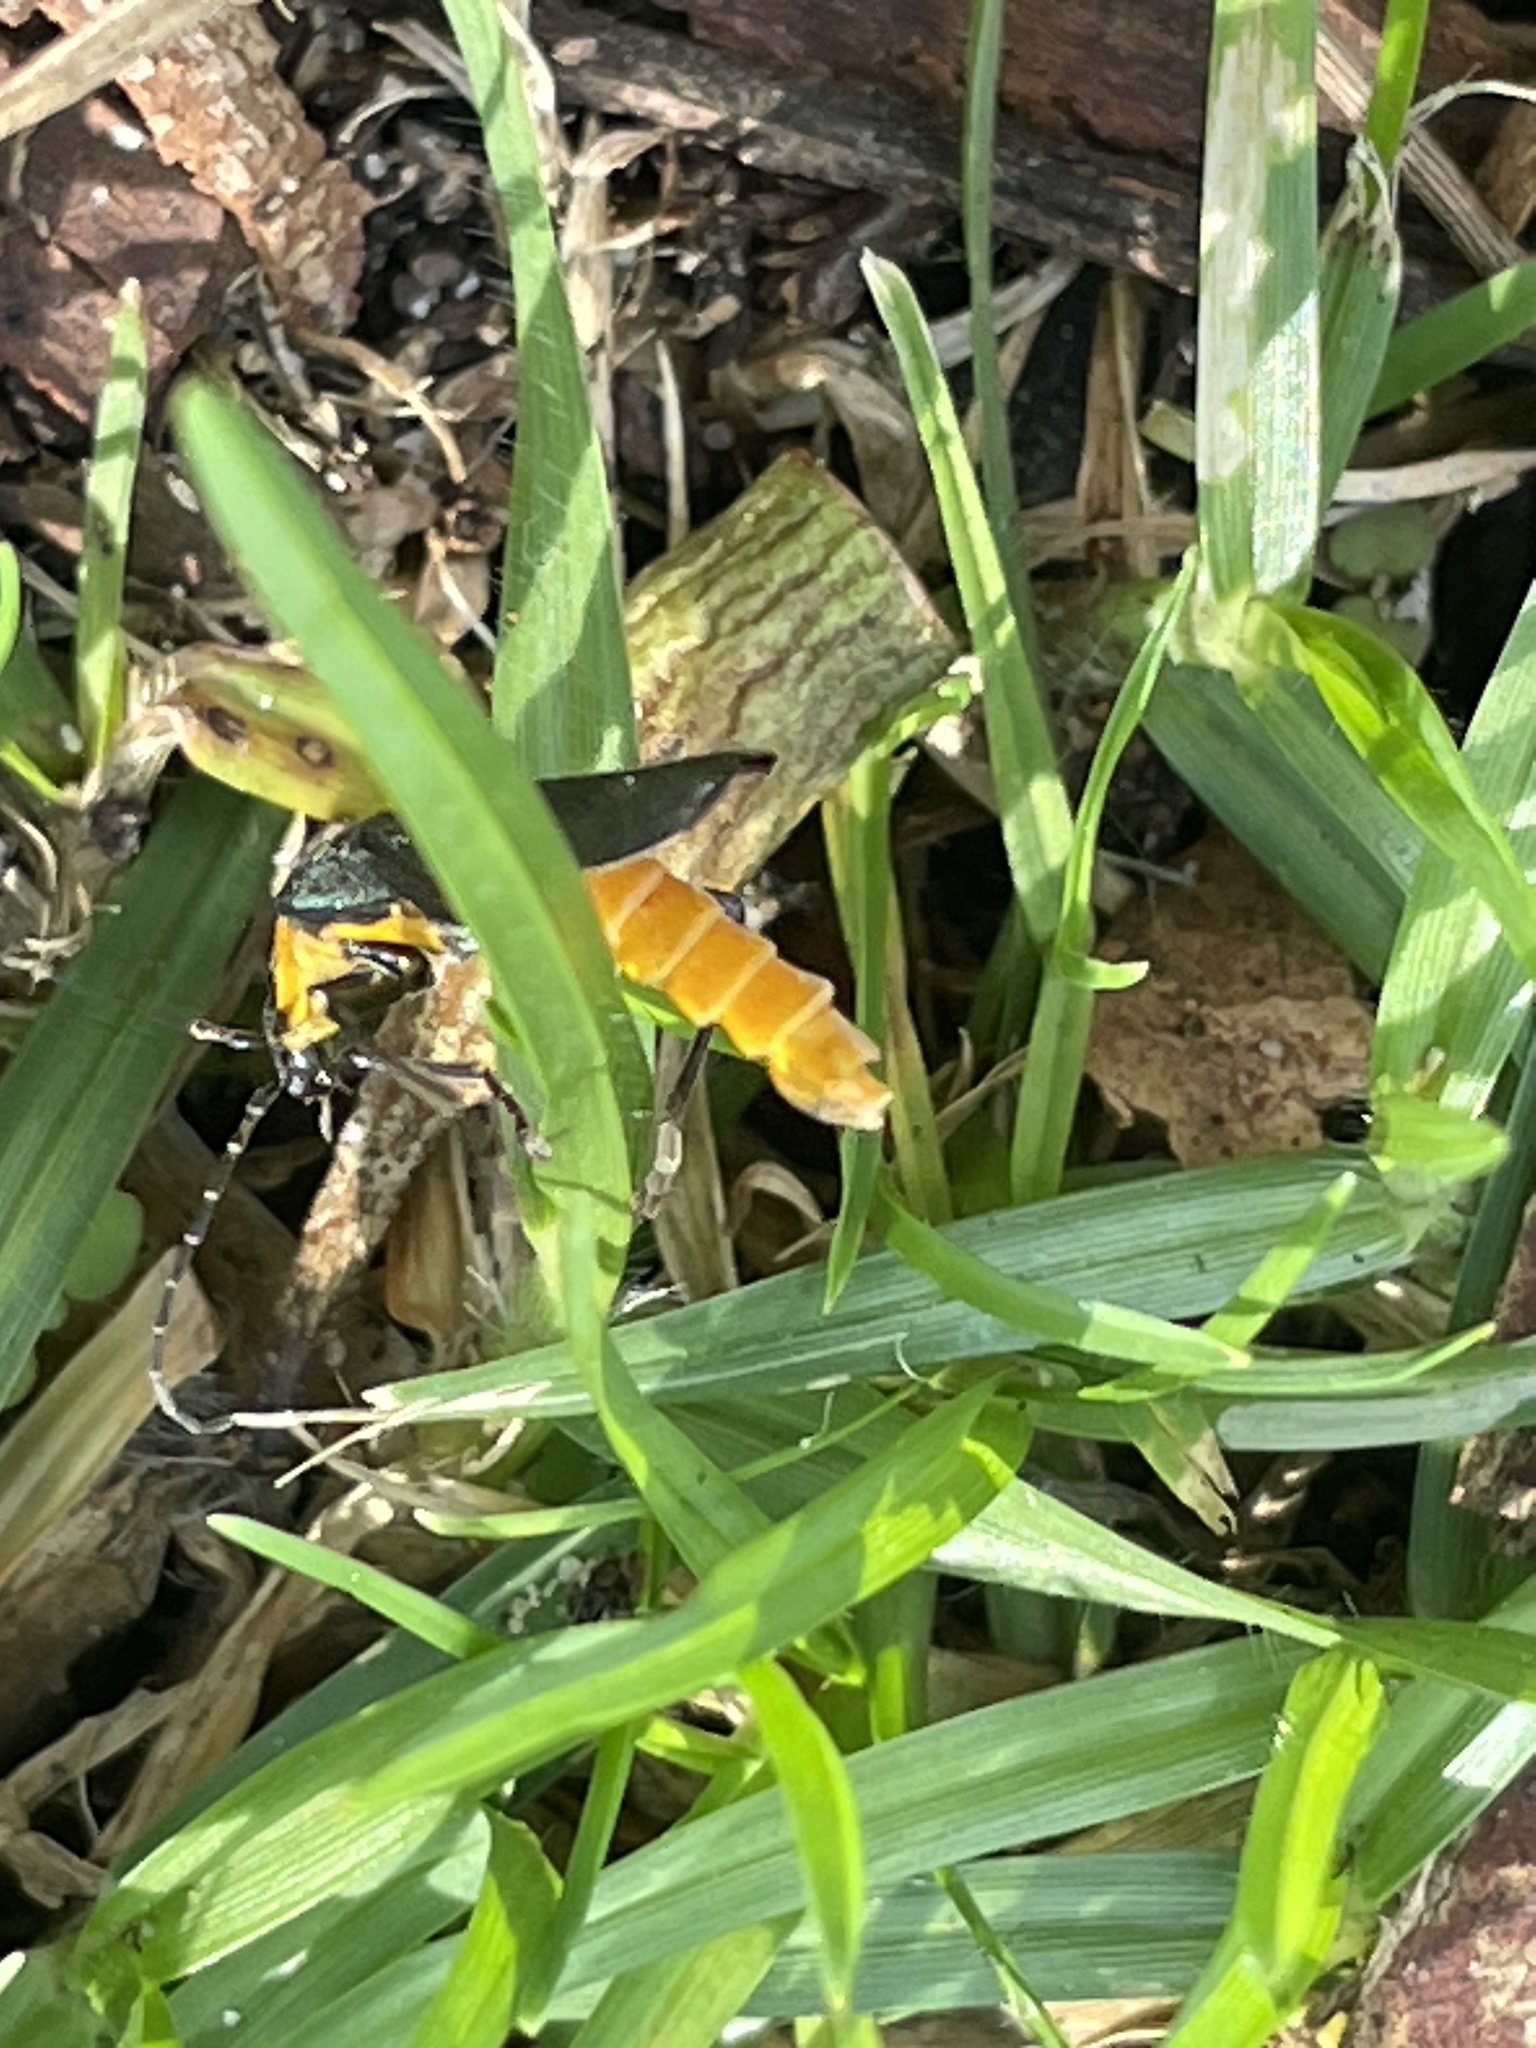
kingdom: Animalia
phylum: Arthropoda
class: Insecta
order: Coleoptera
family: Cantharidae
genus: Chauliognathus
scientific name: Chauliognathus
